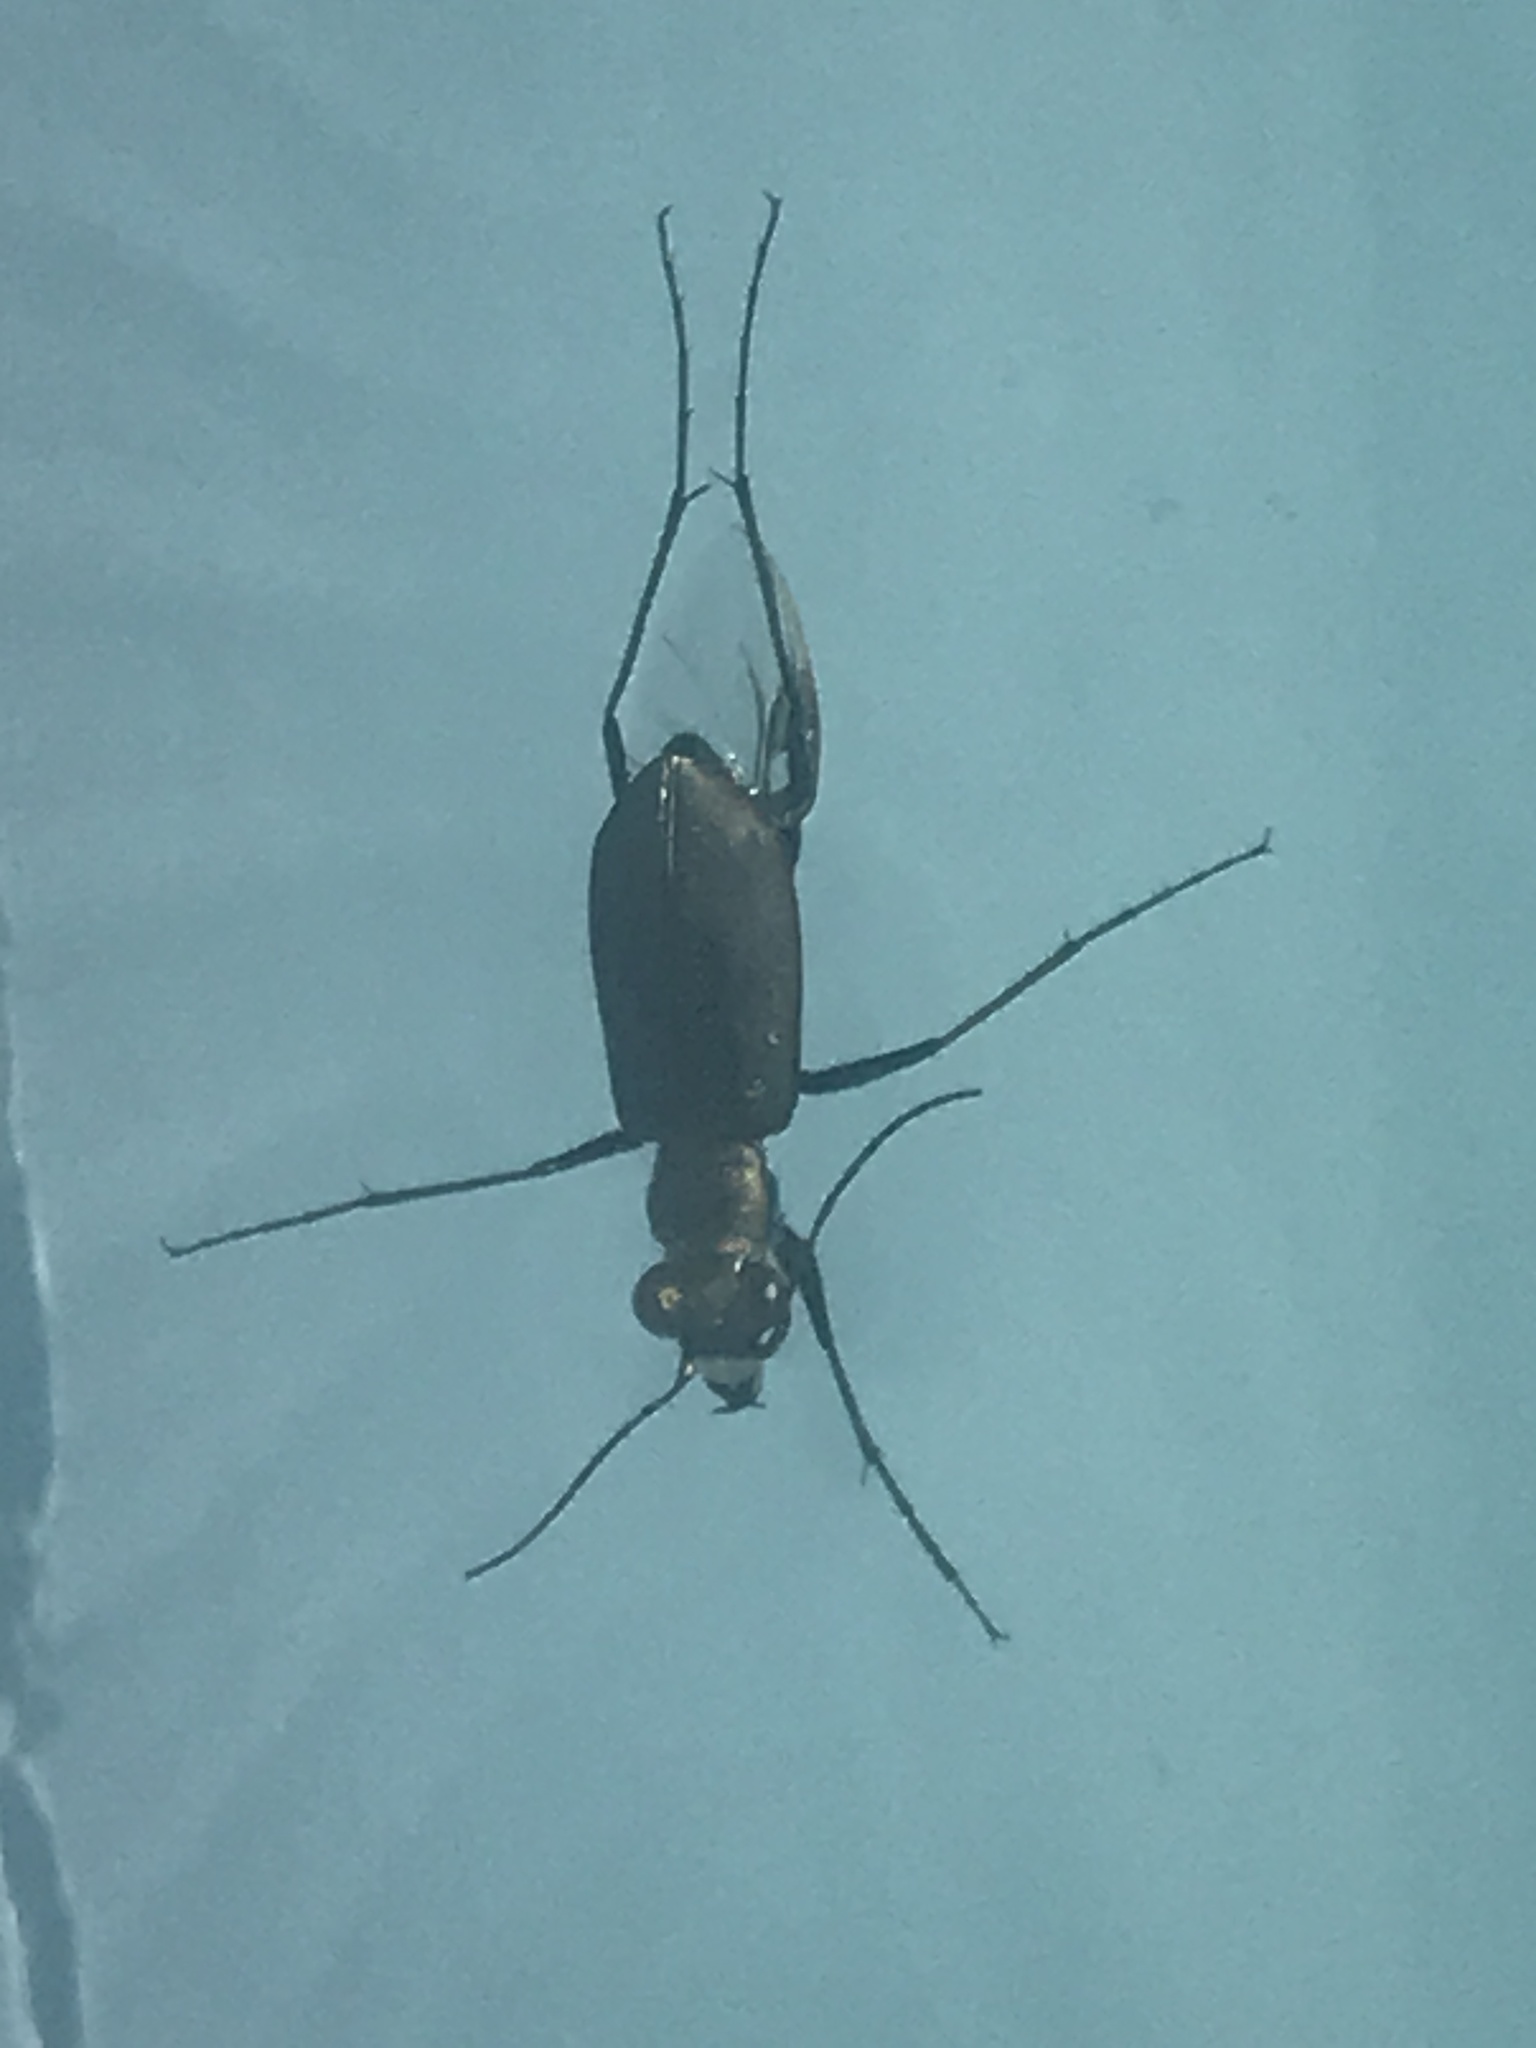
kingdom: Animalia
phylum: Arthropoda
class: Insecta
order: Coleoptera
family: Carabidae
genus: Cicindela
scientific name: Cicindela punctulata
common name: Punctured tiger beetle
